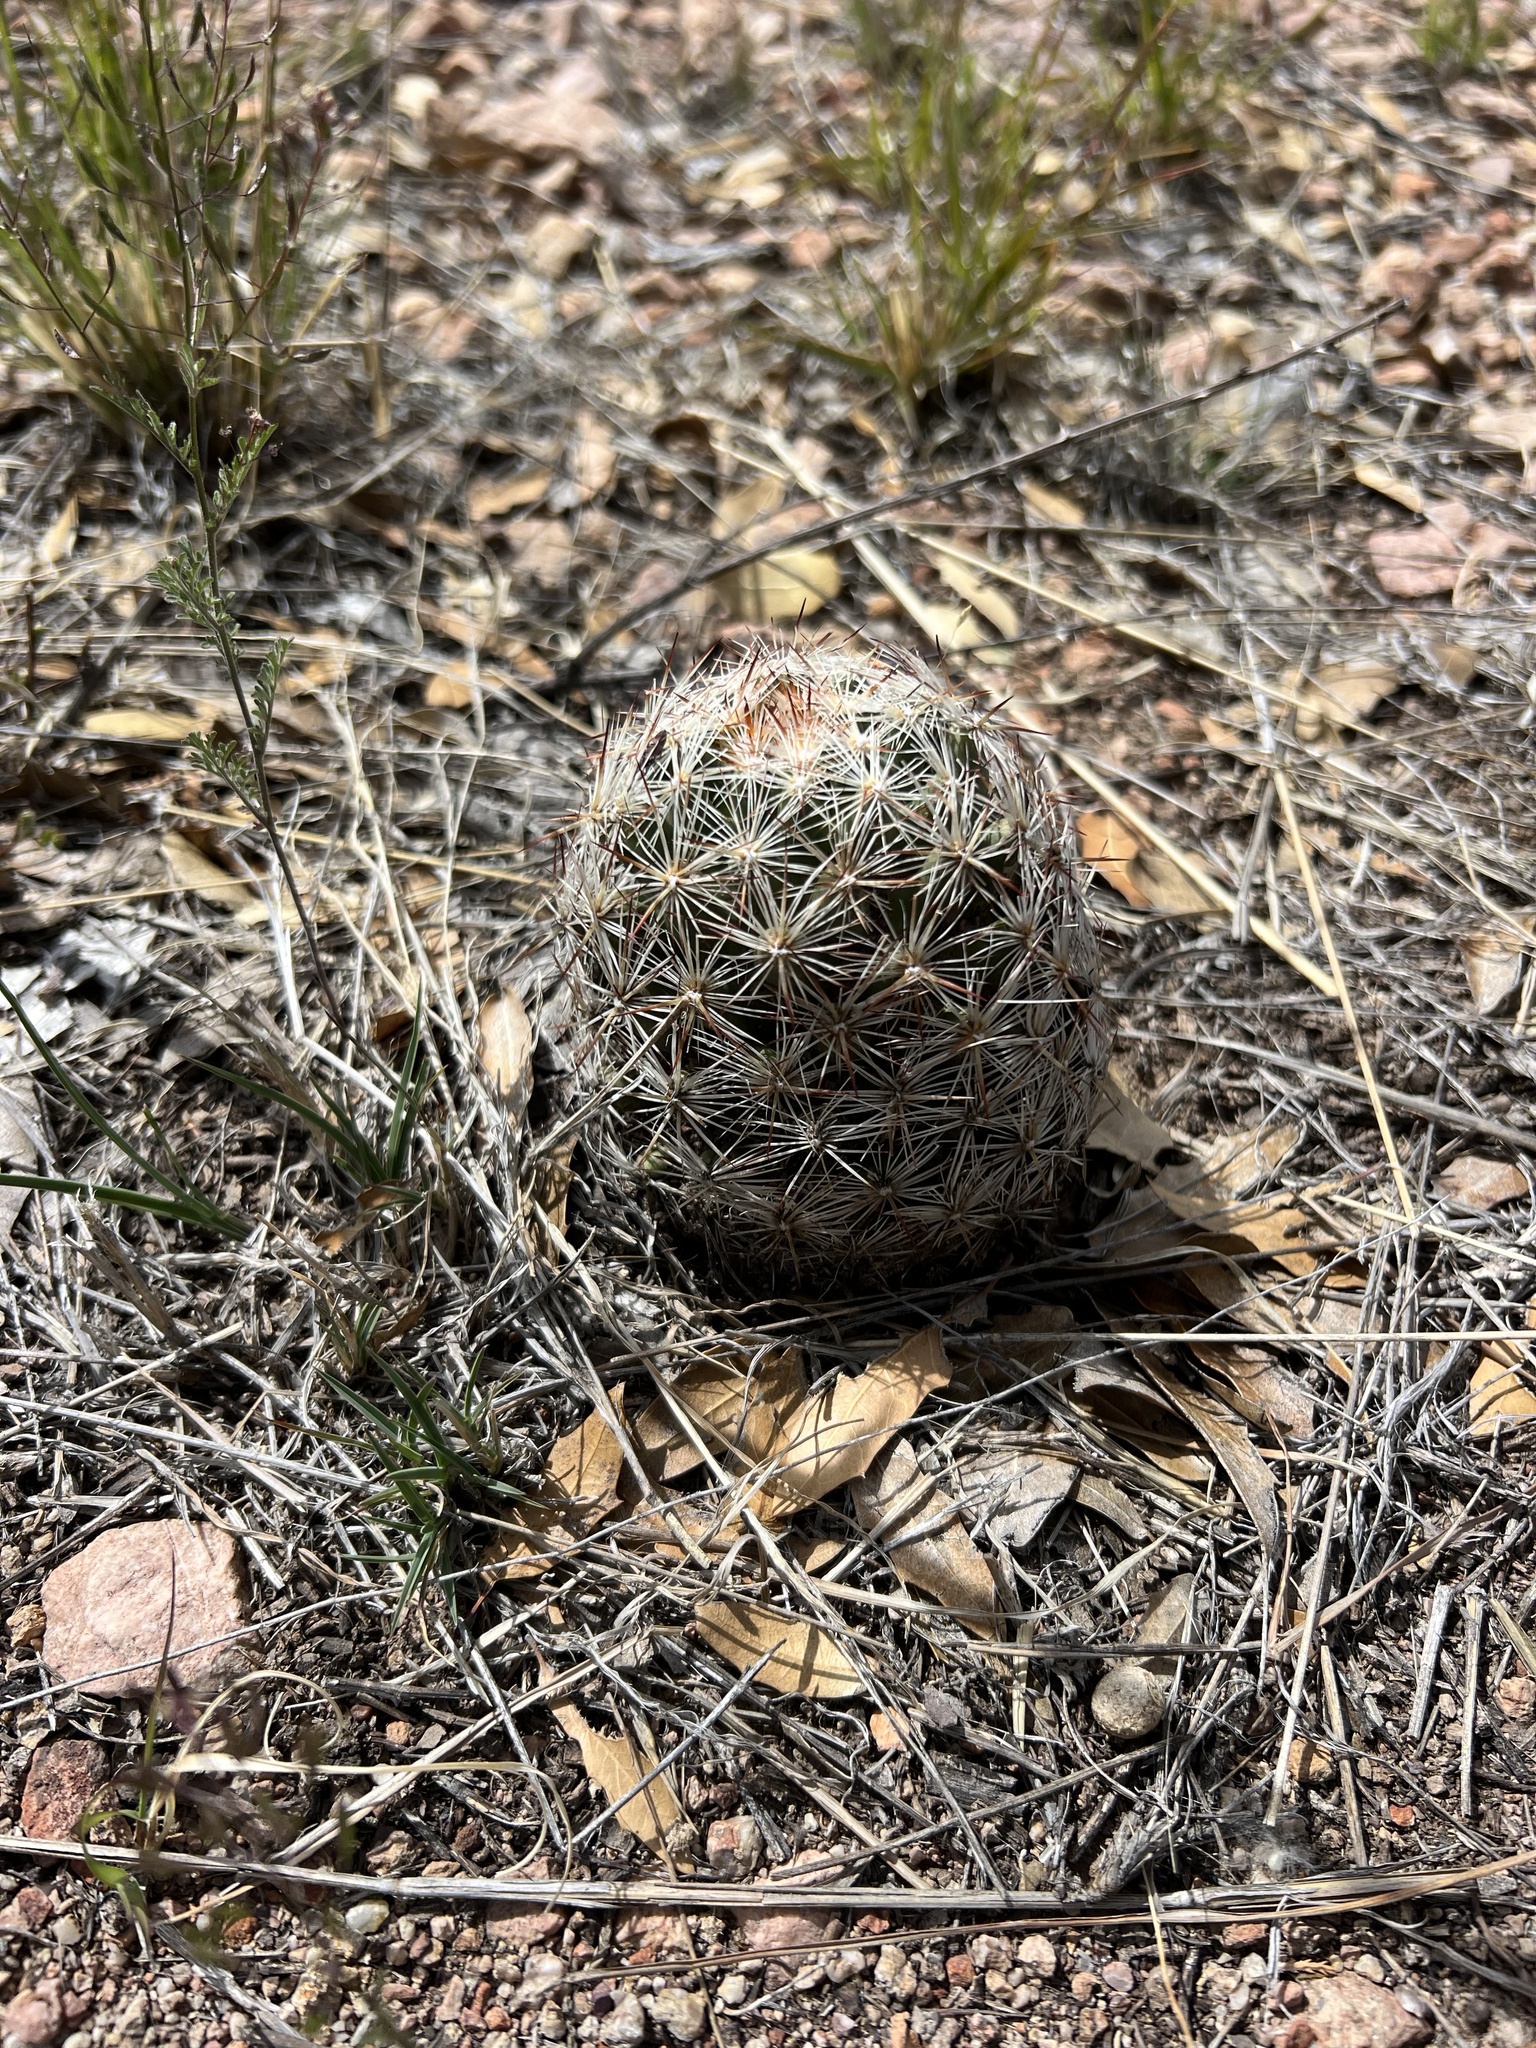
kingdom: Plantae
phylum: Tracheophyta
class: Magnoliopsida
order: Caryophyllales
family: Cactaceae
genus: Pelecyphora
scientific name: Pelecyphora vivipara
